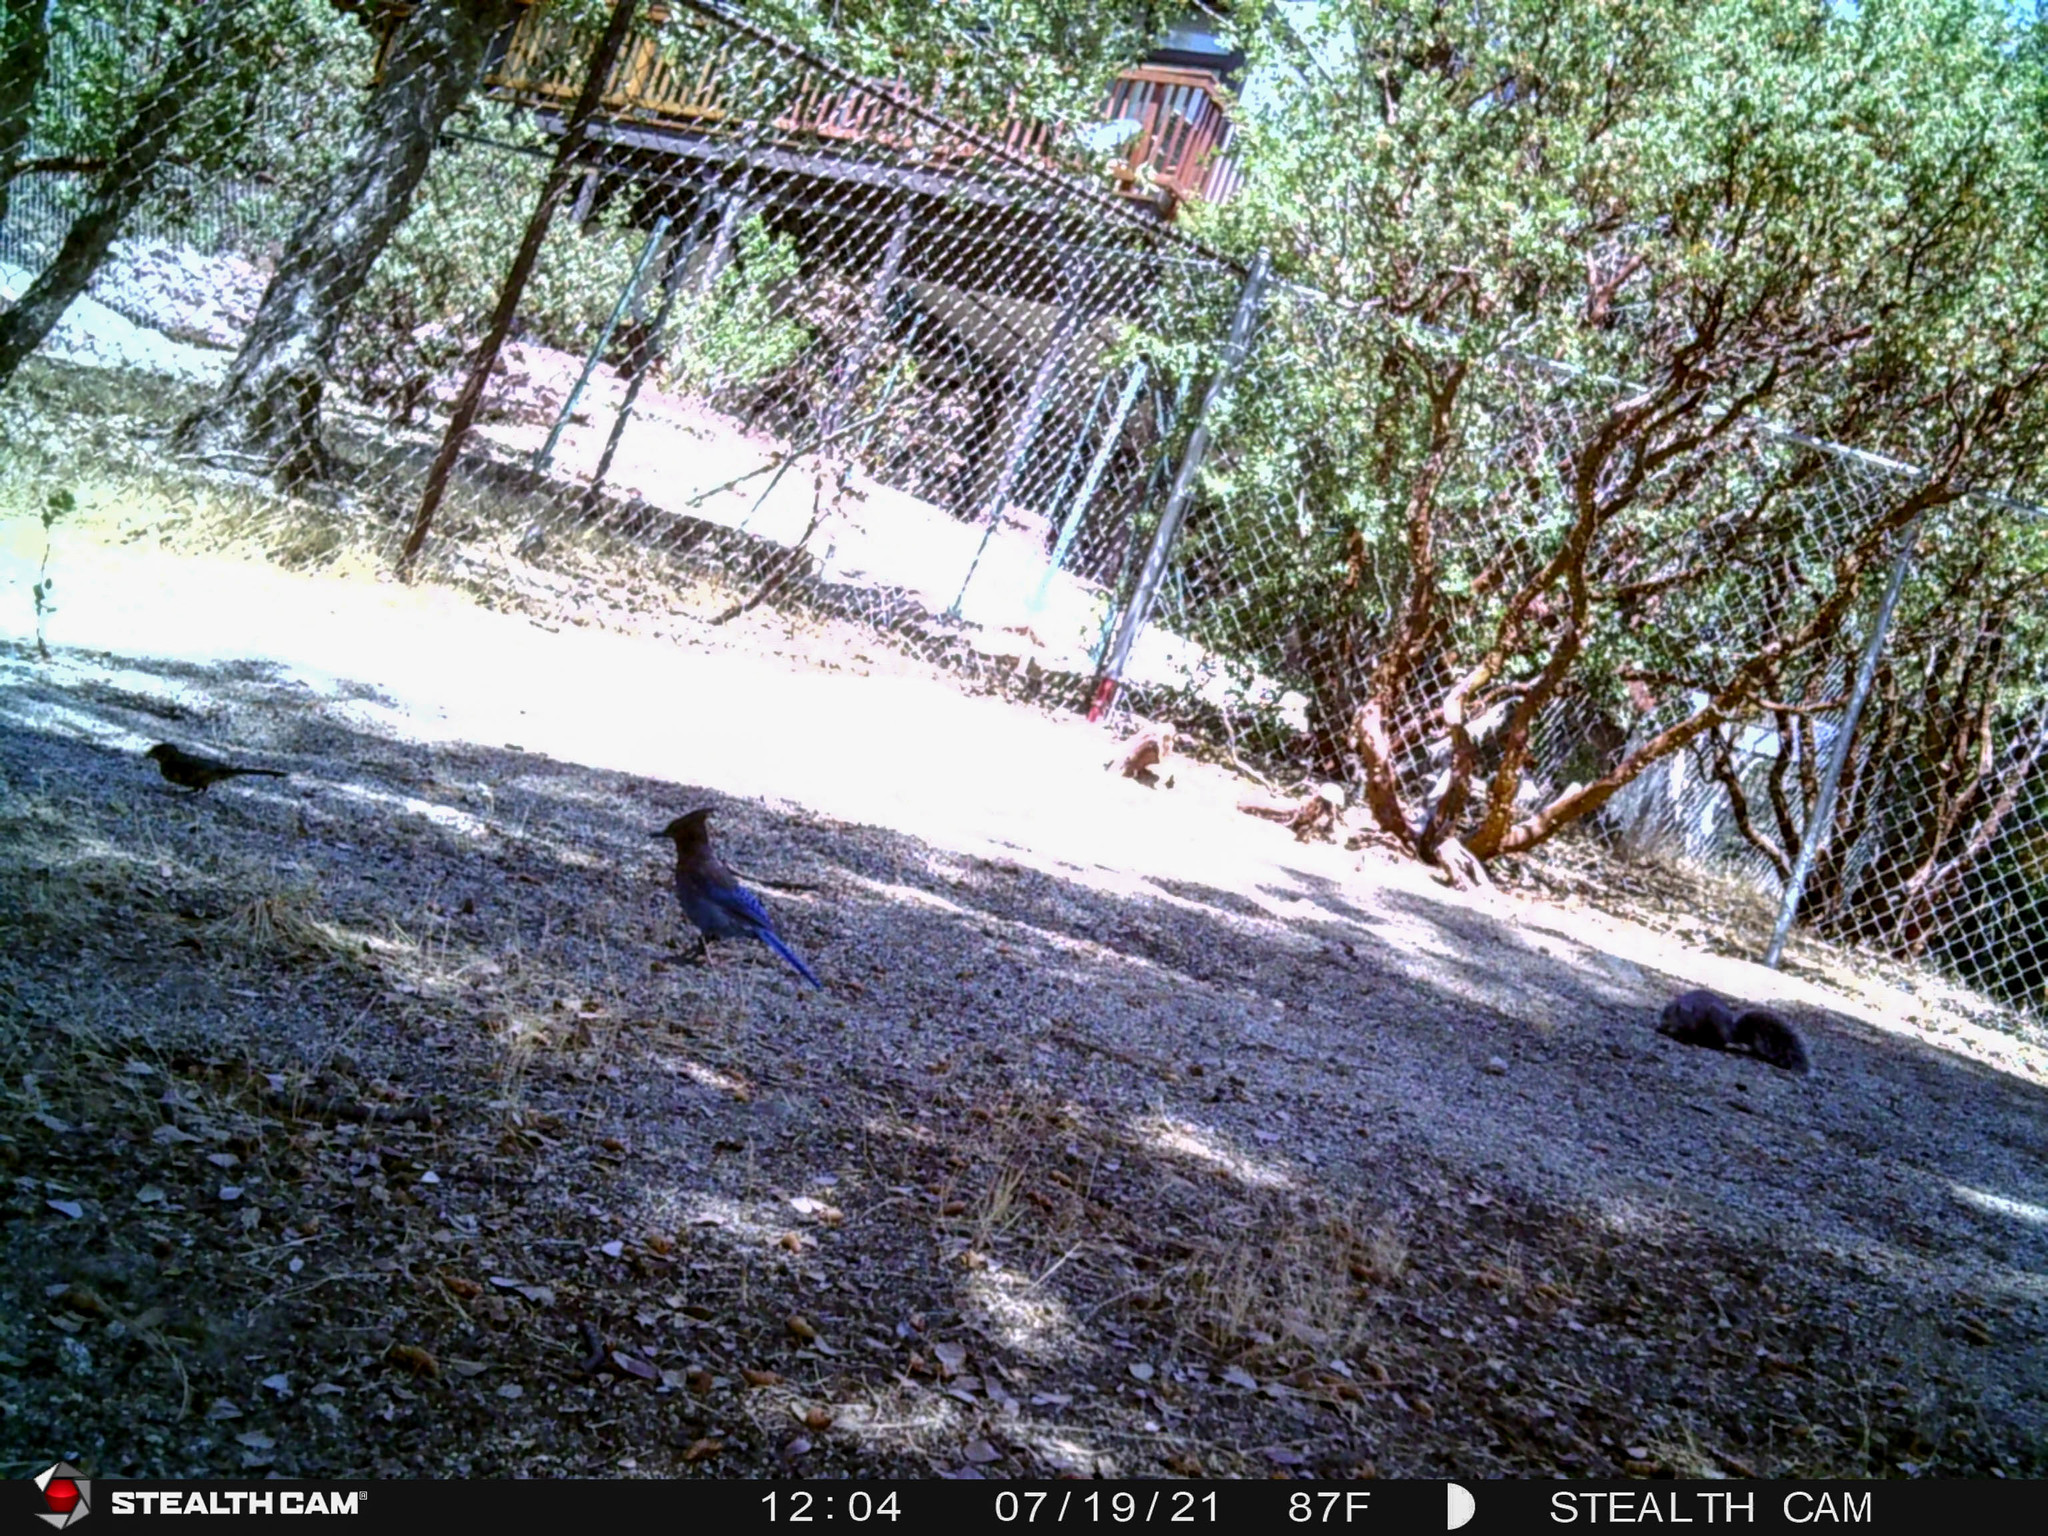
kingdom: Animalia
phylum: Chordata
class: Mammalia
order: Rodentia
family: Sciuridae
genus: Sciurus
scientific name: Sciurus griseus
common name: Western gray squirrel
